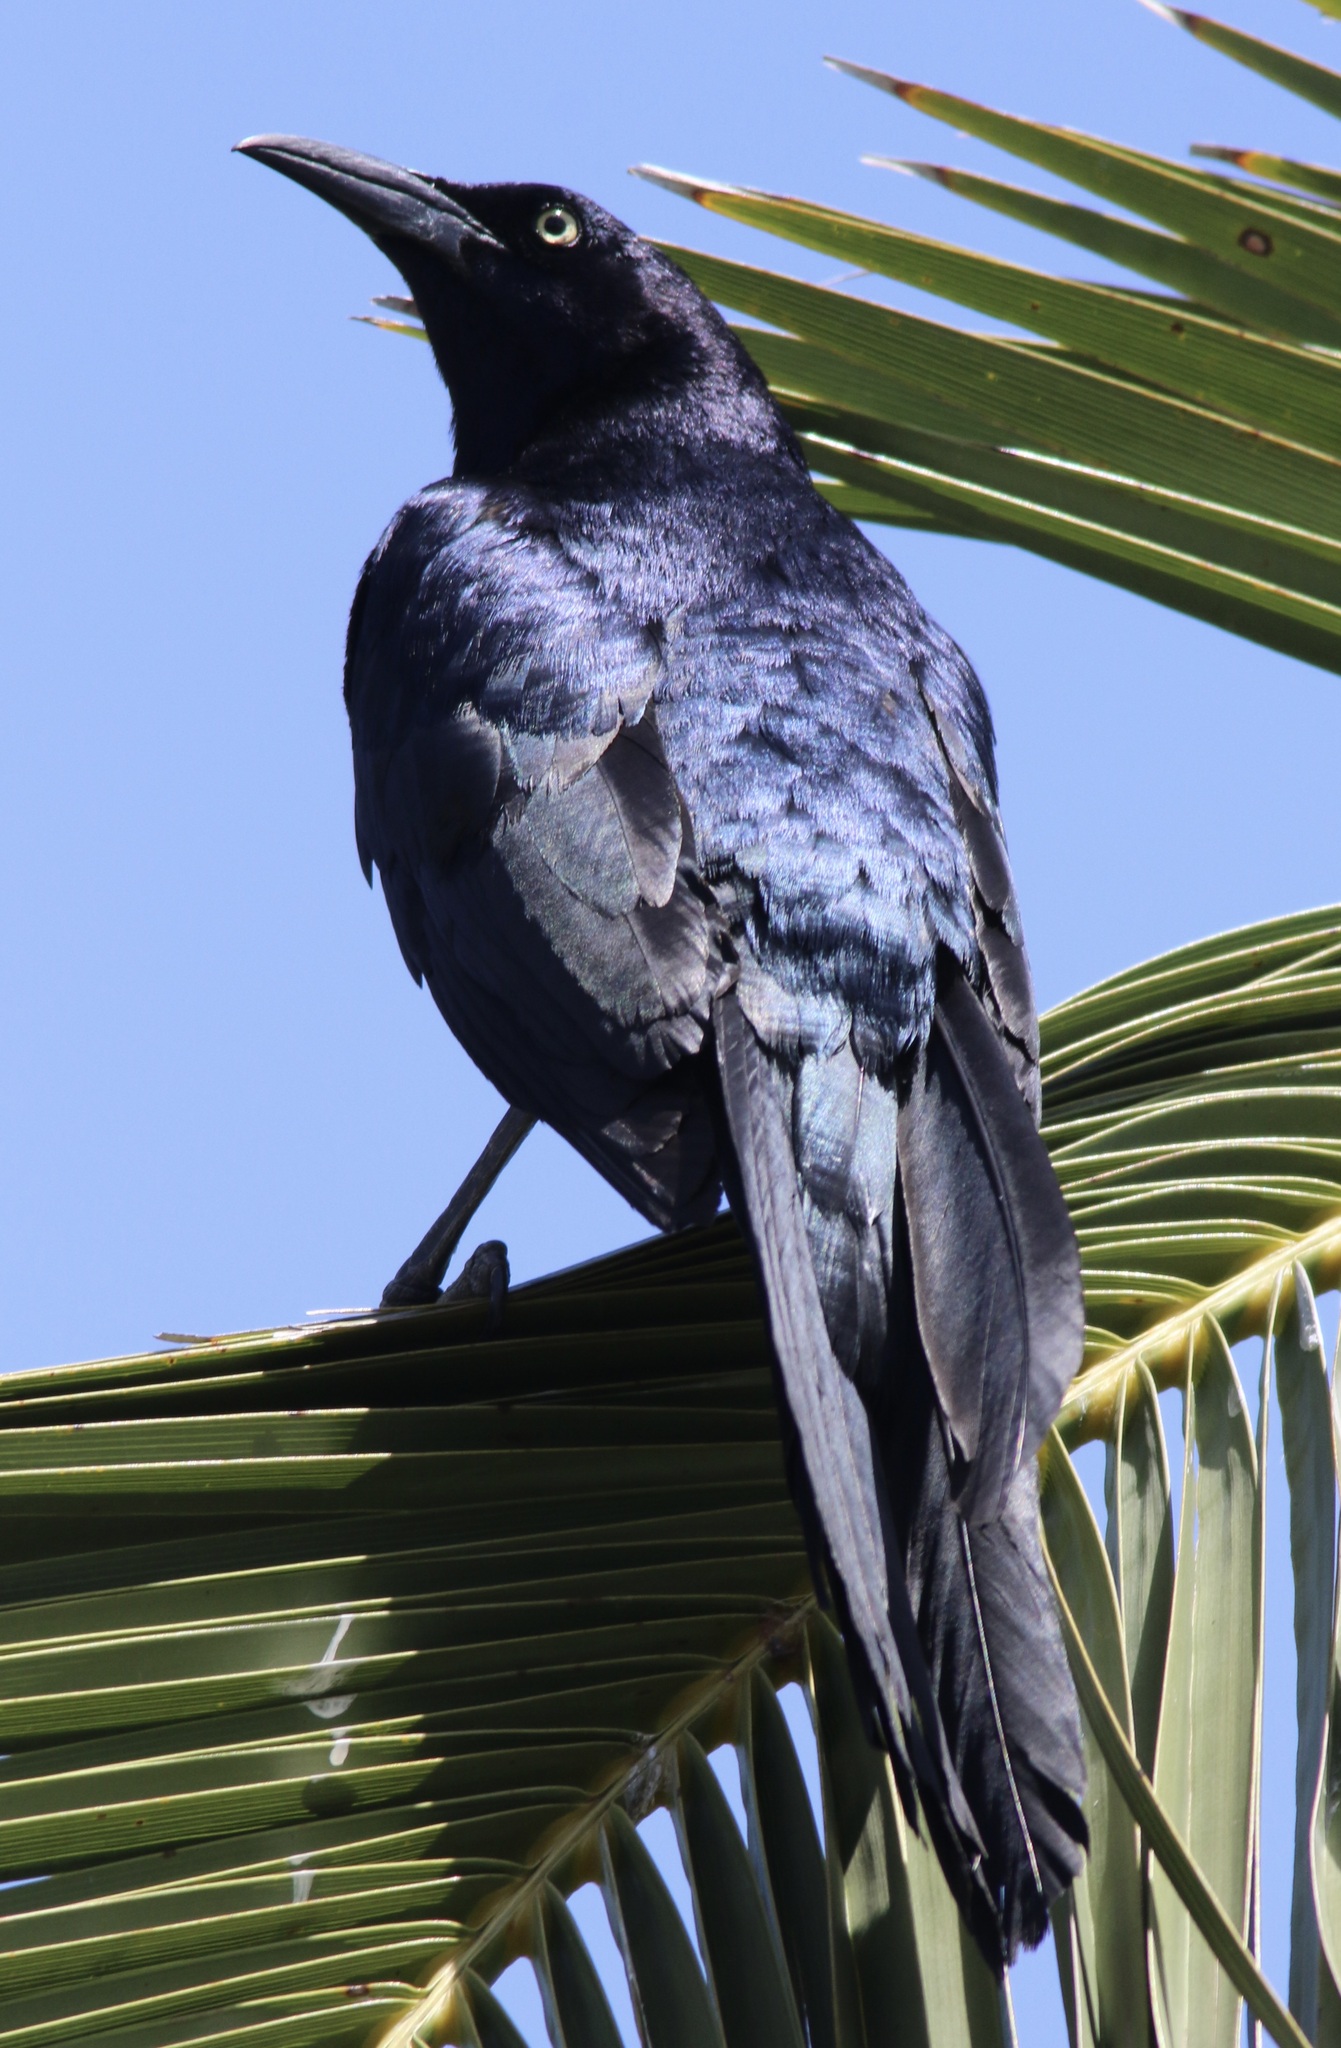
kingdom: Animalia
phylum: Chordata
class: Aves
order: Passeriformes
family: Icteridae
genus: Quiscalus
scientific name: Quiscalus mexicanus
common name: Great-tailed grackle
